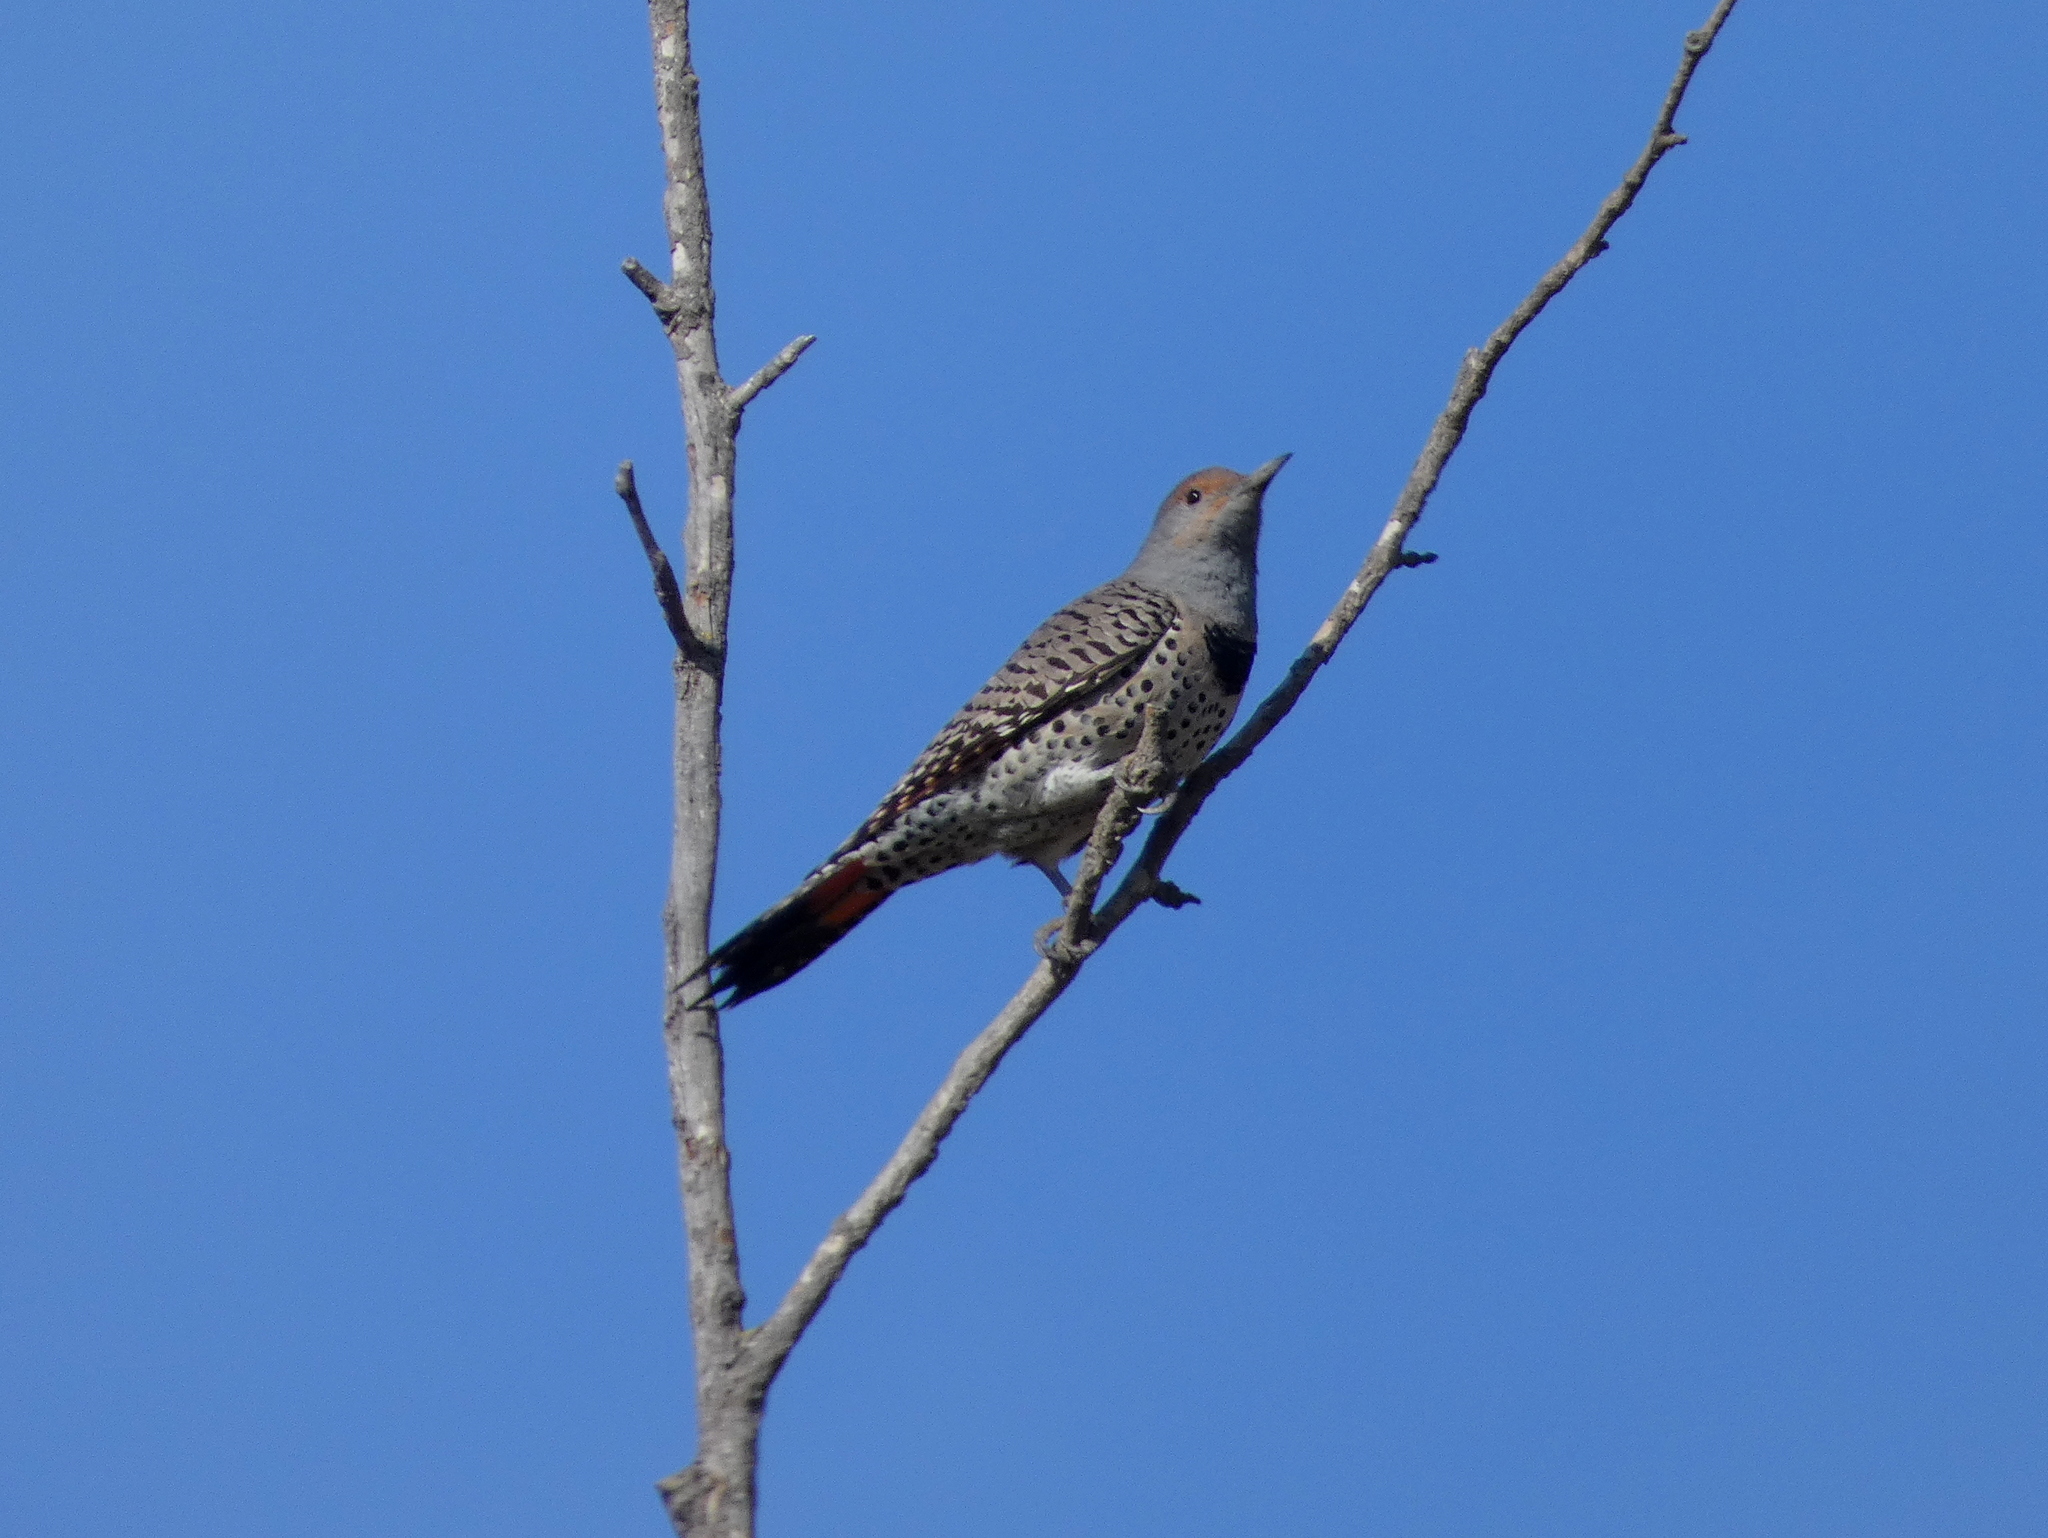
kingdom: Animalia
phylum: Chordata
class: Aves
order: Piciformes
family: Picidae
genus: Colaptes
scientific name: Colaptes auratus
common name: Northern flicker
